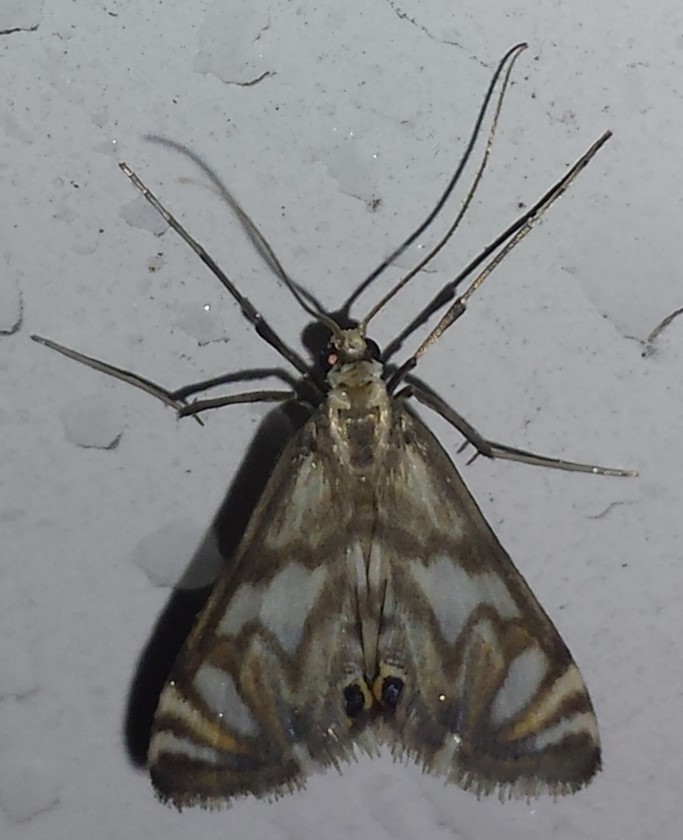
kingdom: Animalia
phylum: Arthropoda
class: Insecta
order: Lepidoptera
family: Crambidae
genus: Neocataclysta
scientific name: Neocataclysta magnificalis
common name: Scrollwork pyralid moth
